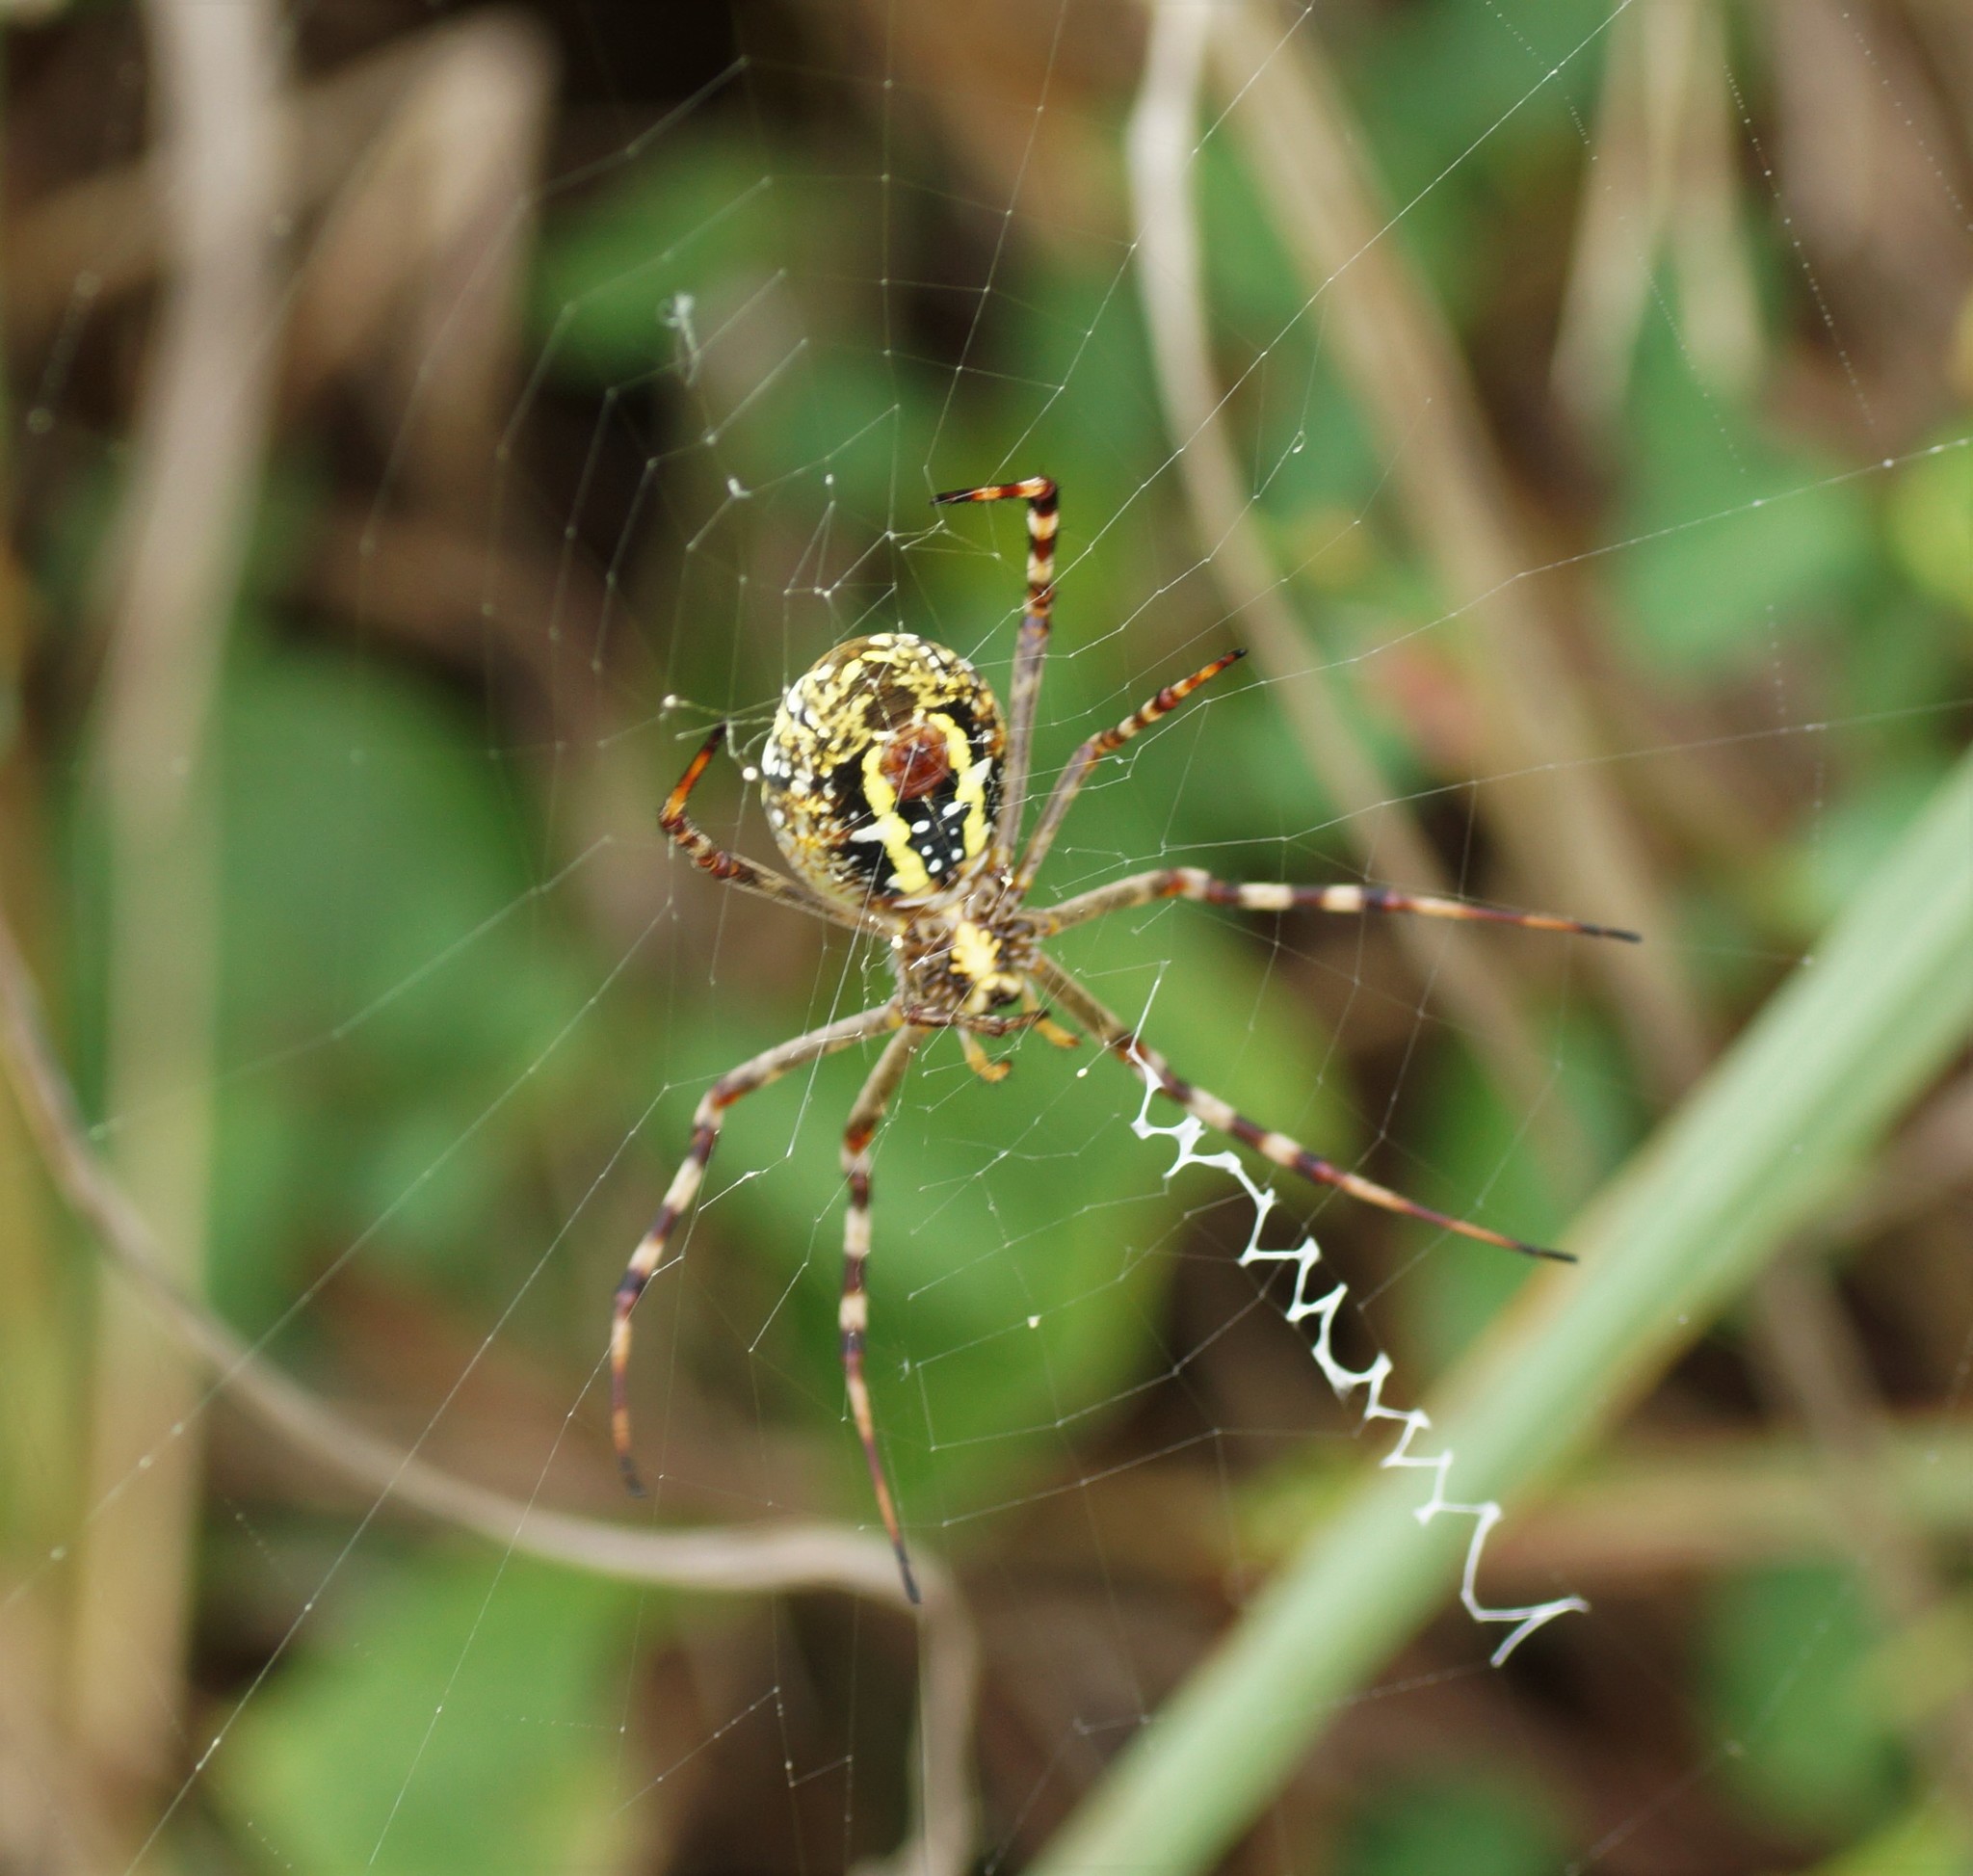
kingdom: Animalia
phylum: Arthropoda
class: Arachnida
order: Araneae
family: Araneidae
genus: Argiope
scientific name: Argiope picta
